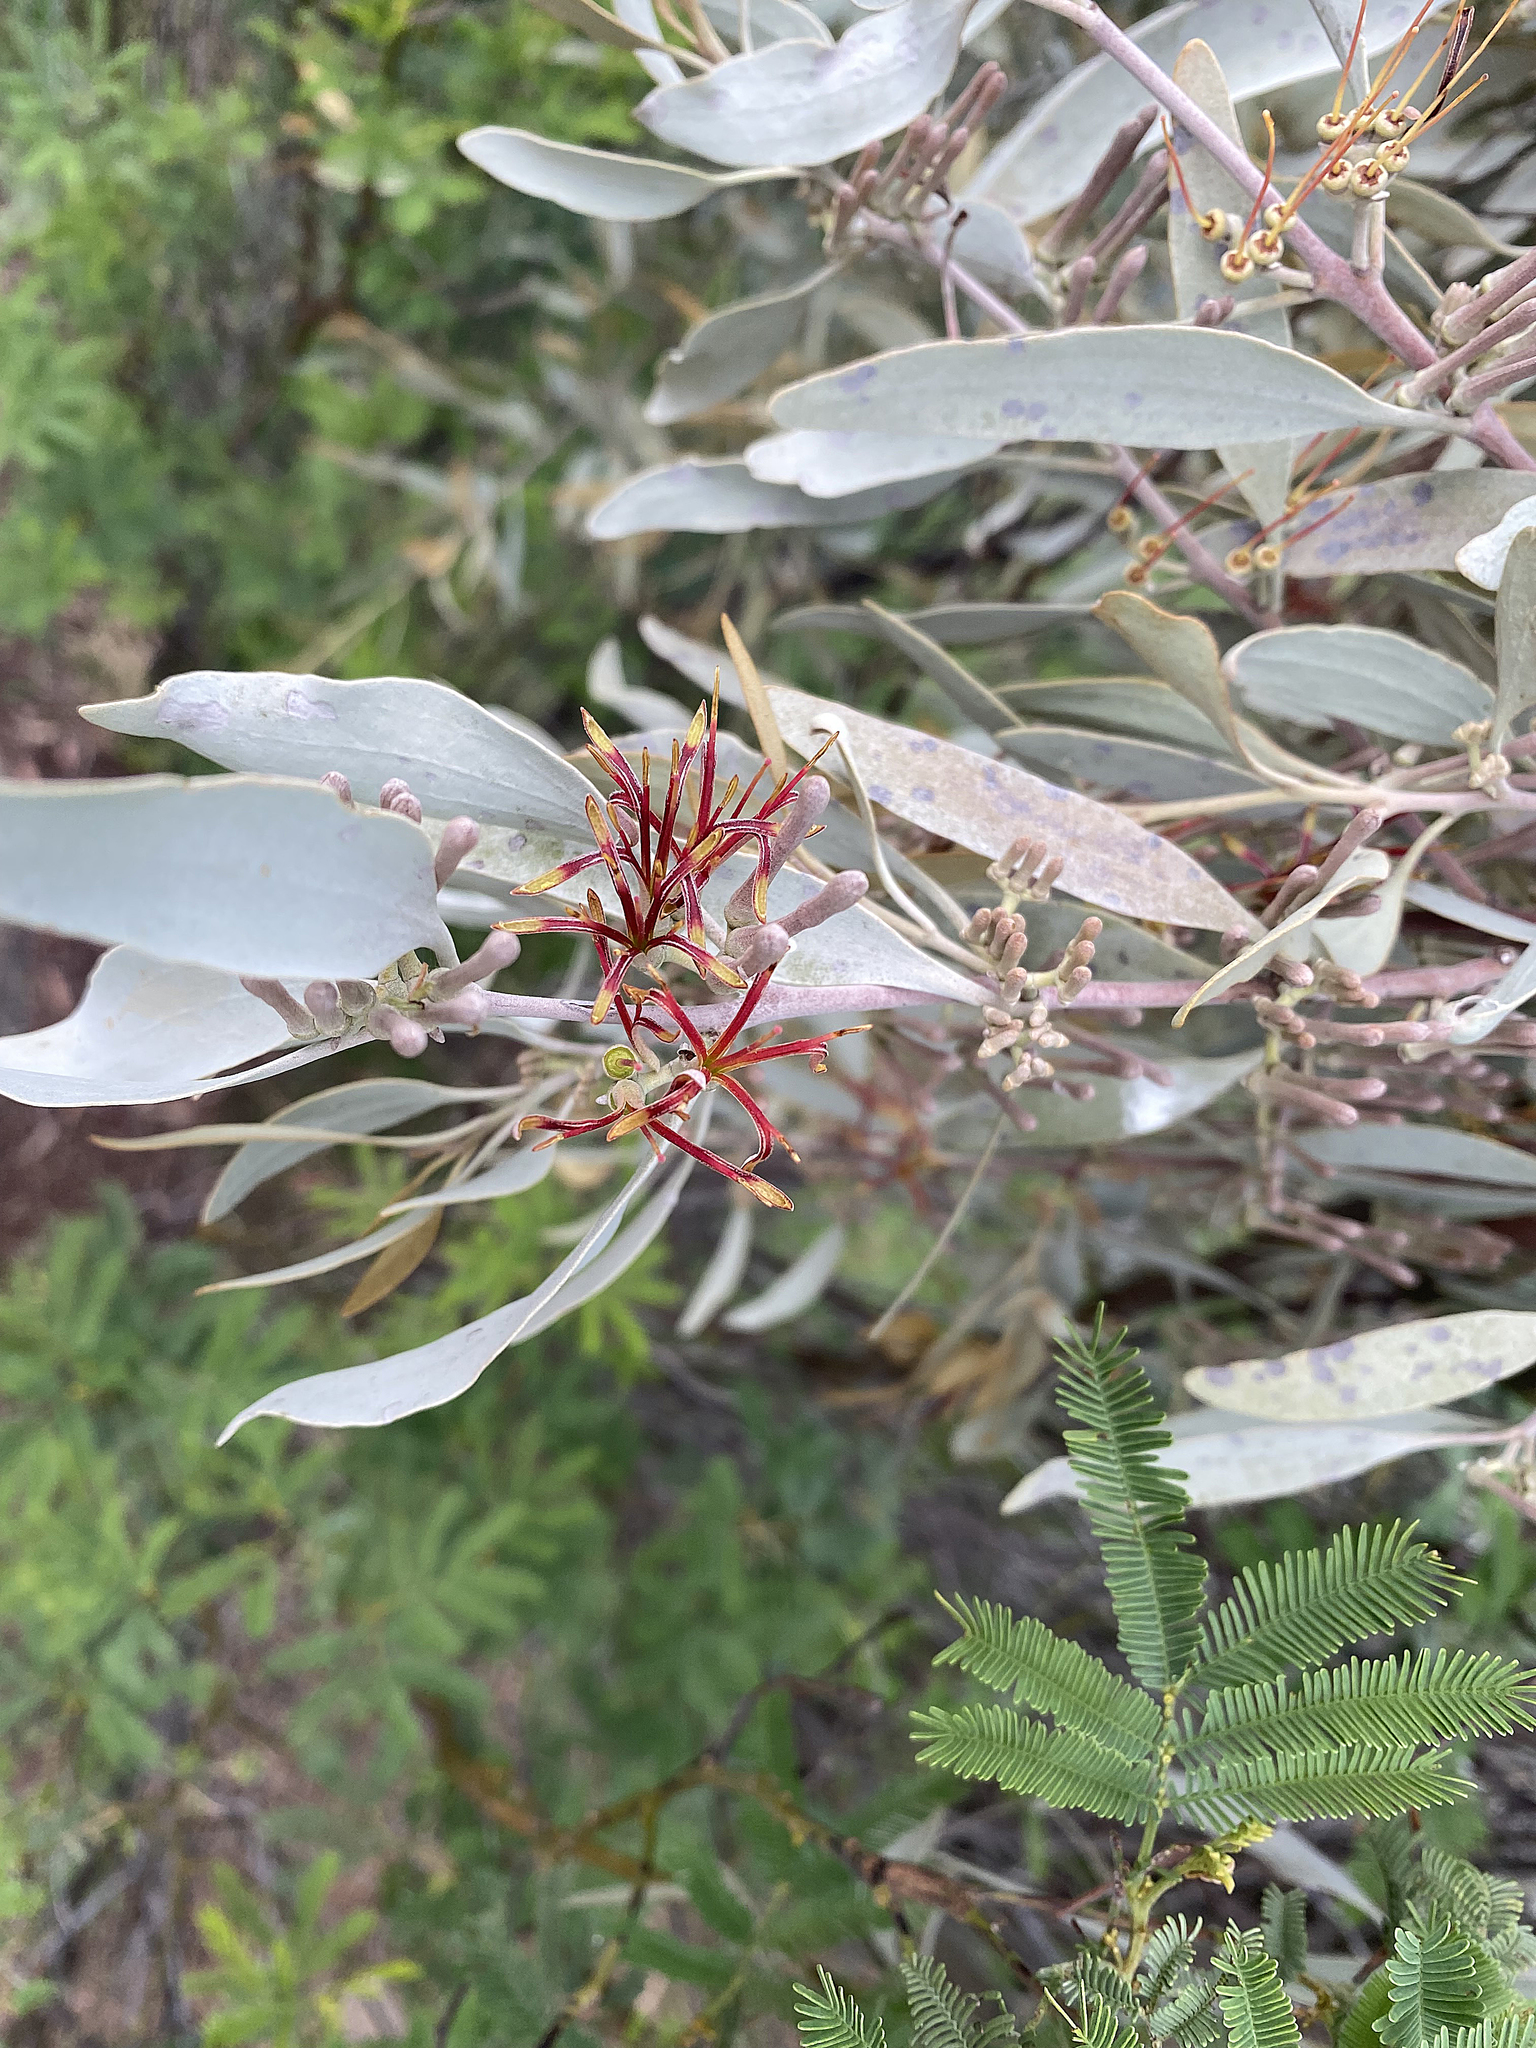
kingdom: Plantae
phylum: Tracheophyta
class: Magnoliopsida
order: Santalales
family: Loranthaceae
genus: Amyema
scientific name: Amyema quandang
